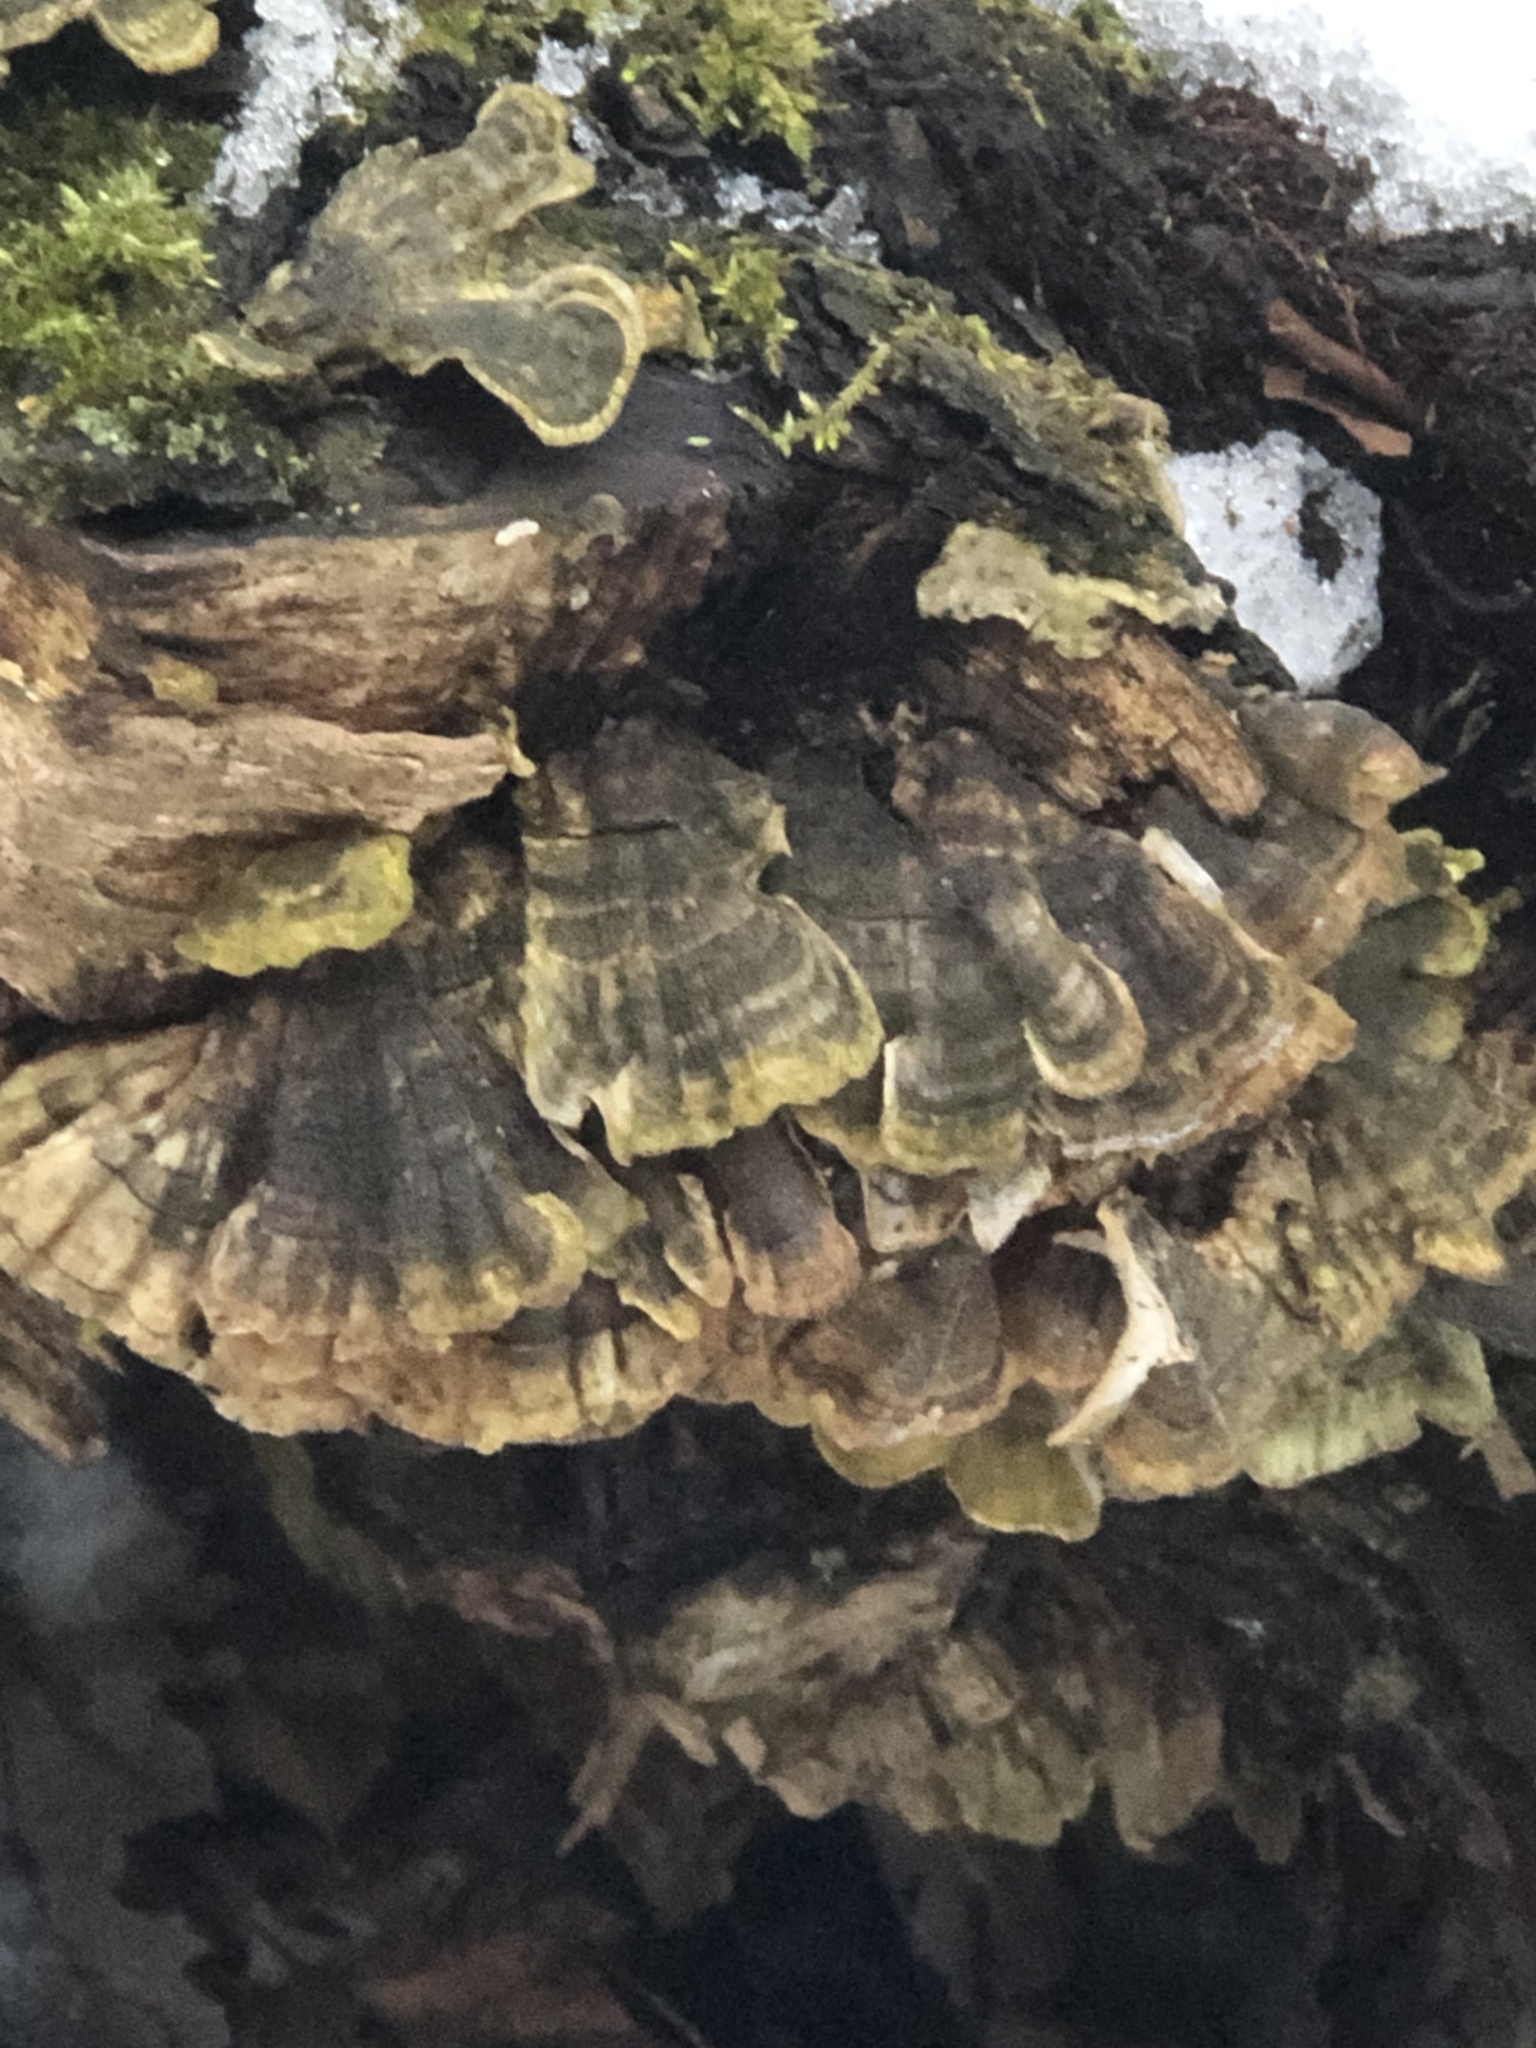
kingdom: Fungi
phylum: Basidiomycota
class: Agaricomycetes
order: Polyporales
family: Polyporaceae
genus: Trametes
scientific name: Trametes versicolor
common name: Turkeytail
